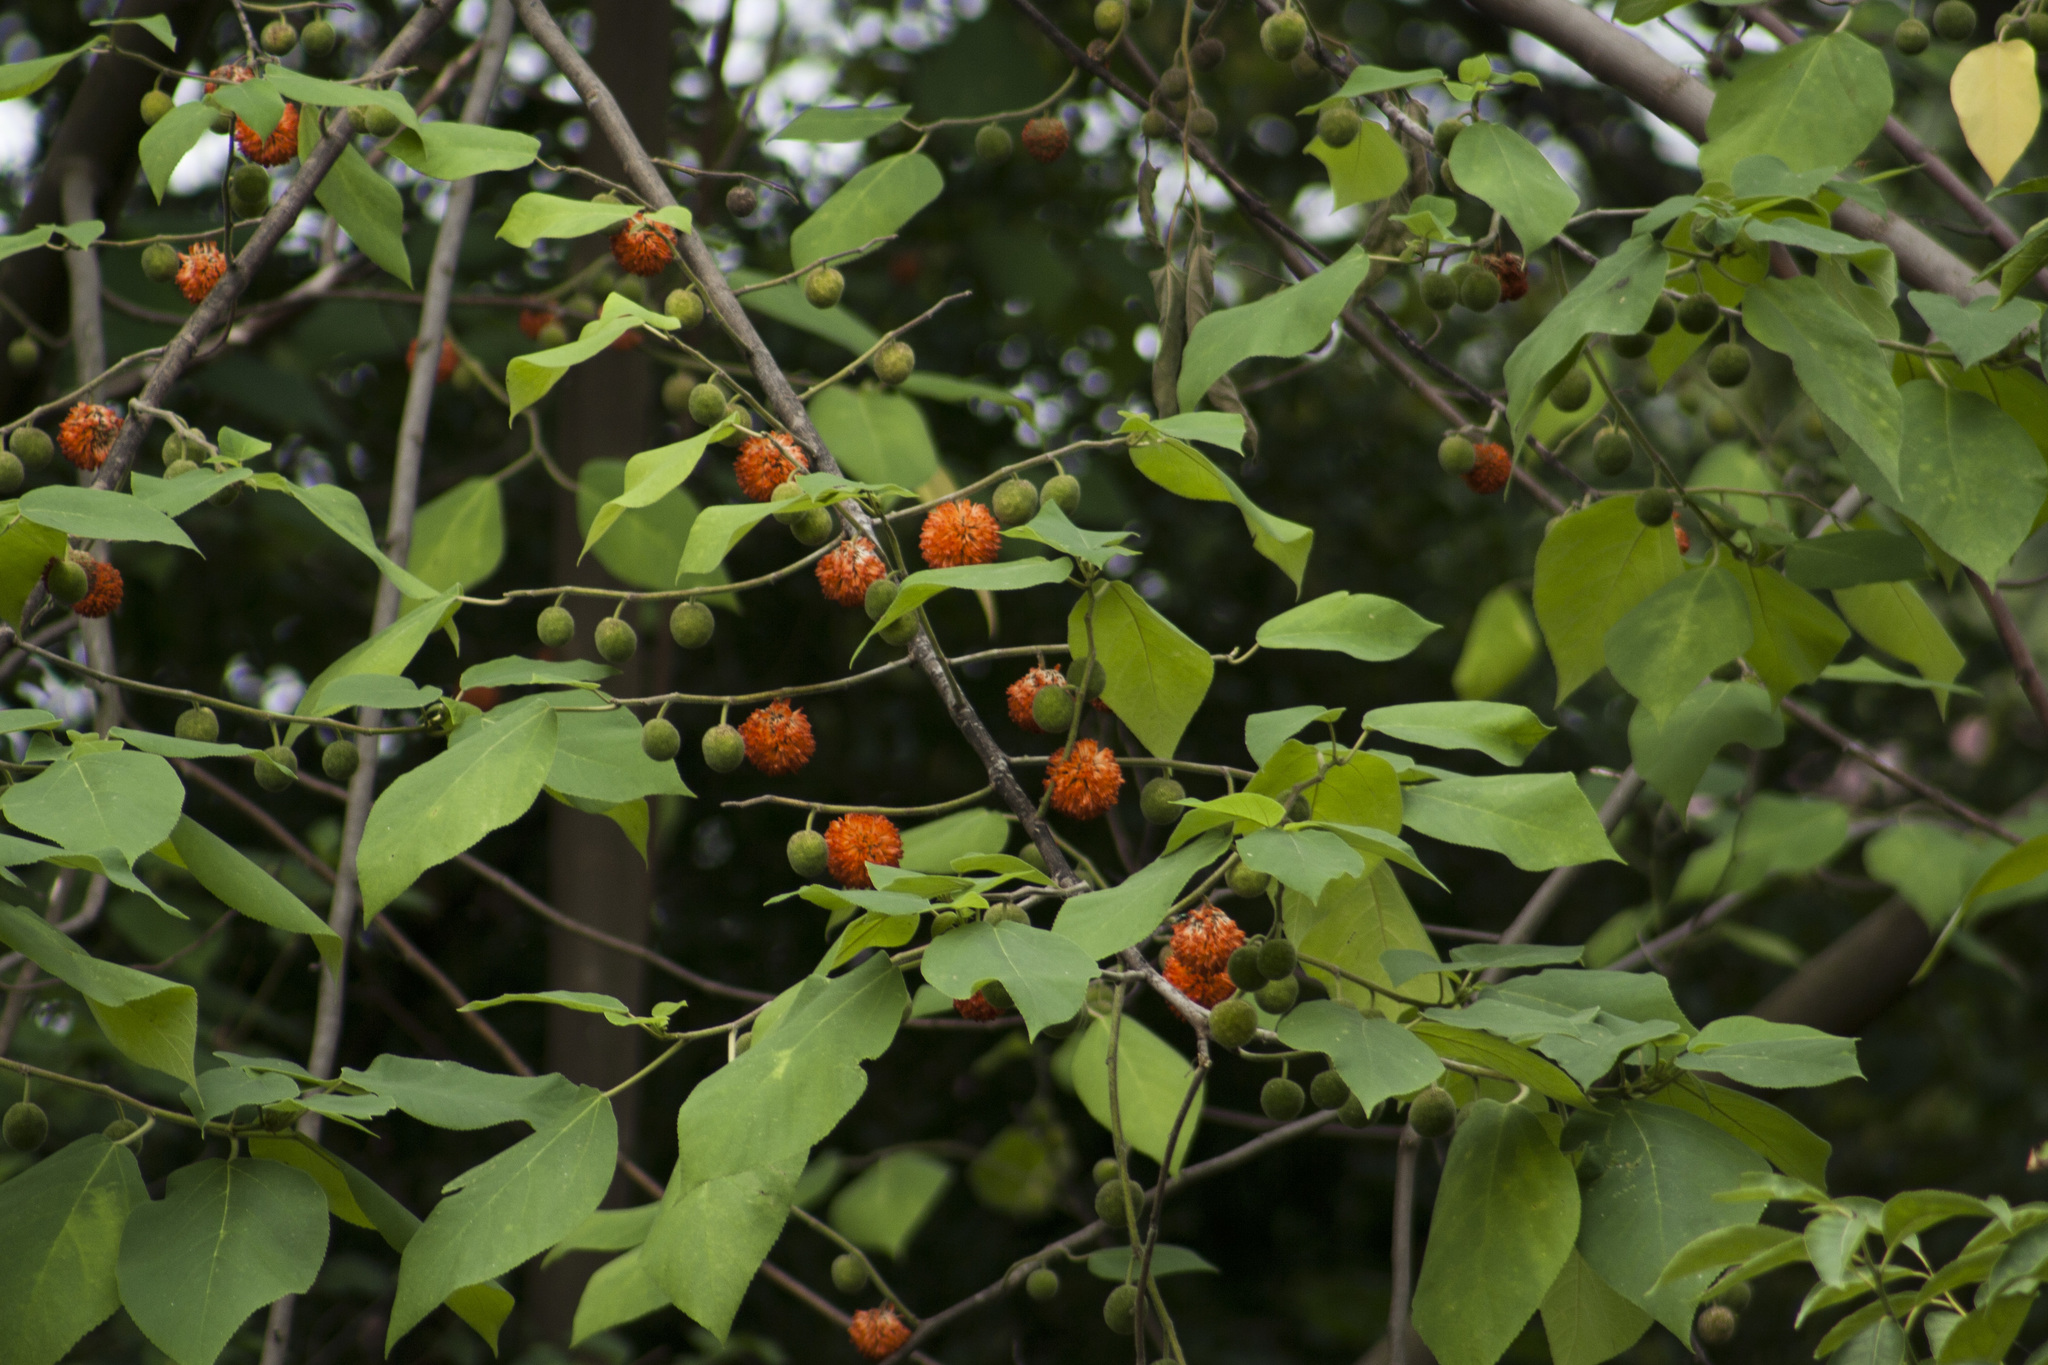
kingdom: Plantae
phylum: Tracheophyta
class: Magnoliopsida
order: Rosales
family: Moraceae
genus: Broussonetia
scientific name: Broussonetia papyrifera
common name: Paper mulberry
